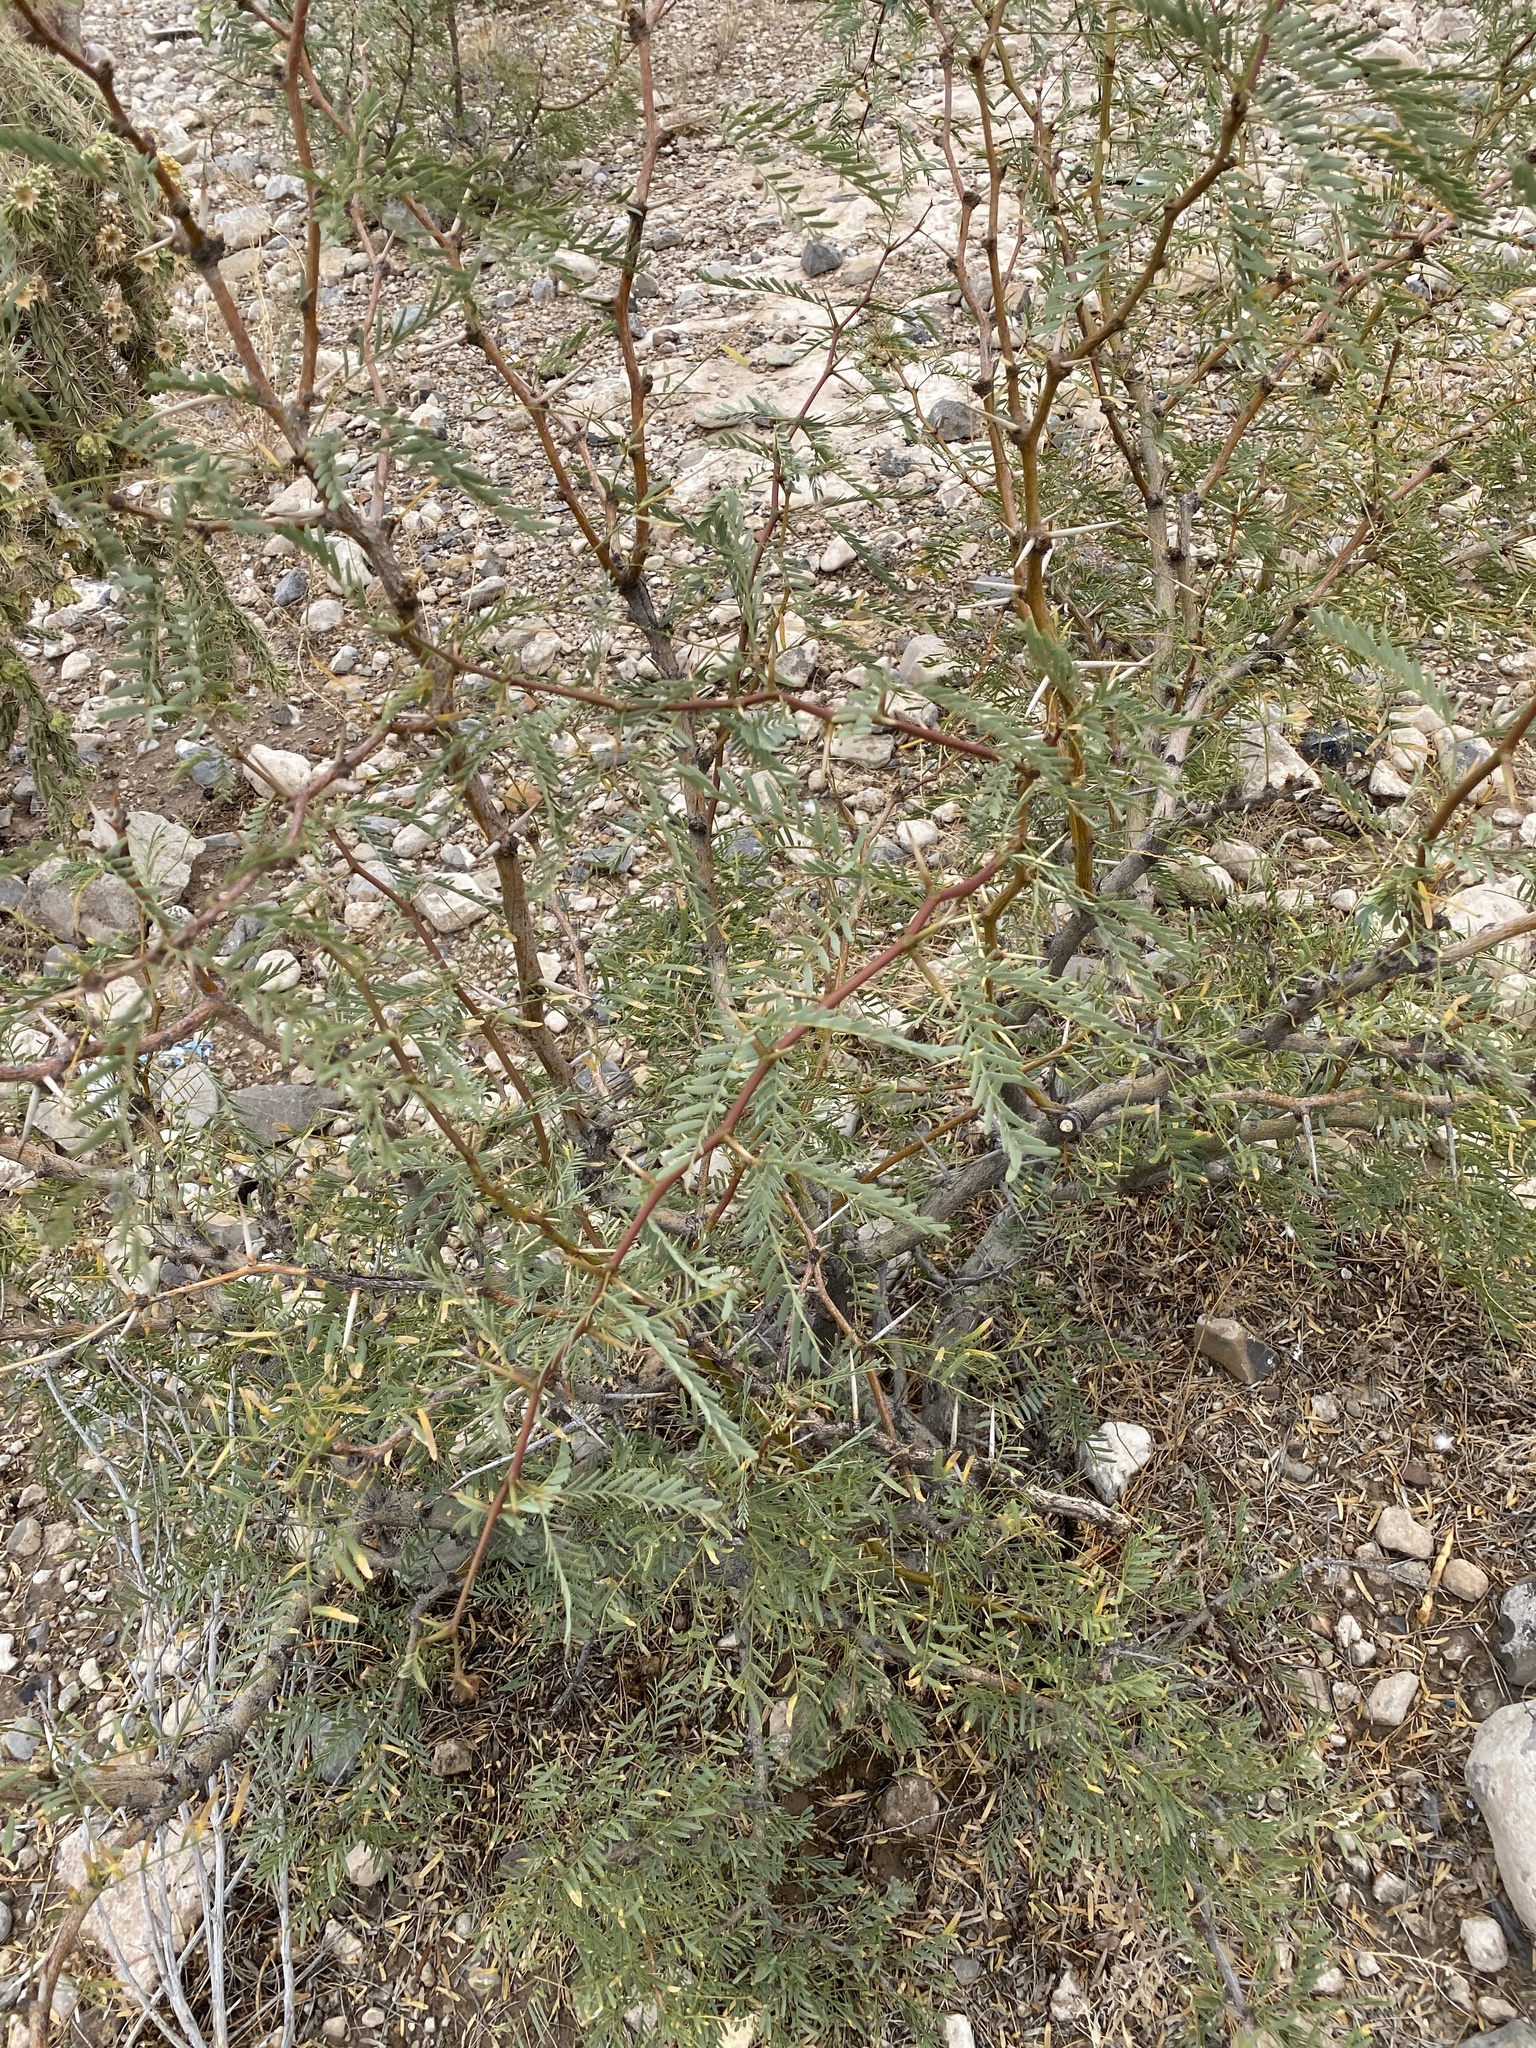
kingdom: Plantae
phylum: Tracheophyta
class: Magnoliopsida
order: Fabales
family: Fabaceae
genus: Prosopis
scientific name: Prosopis glandulosa
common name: Honey mesquite
